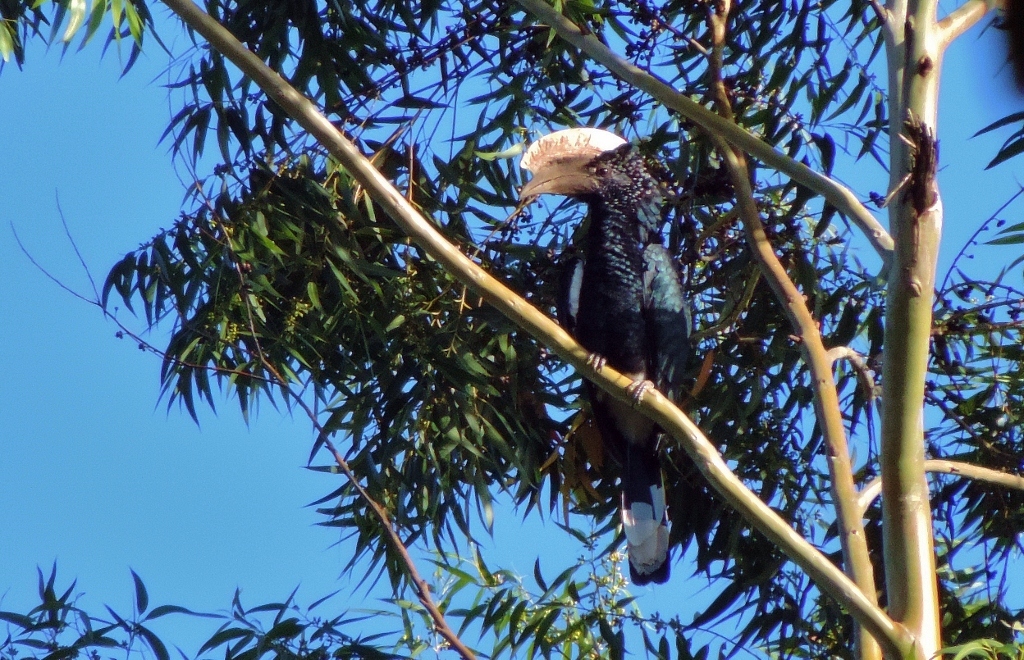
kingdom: Animalia
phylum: Chordata
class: Aves
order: Bucerotiformes
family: Bucerotidae
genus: Bycanistes
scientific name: Bycanistes brevis
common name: Silvery-cheeked hornbill
